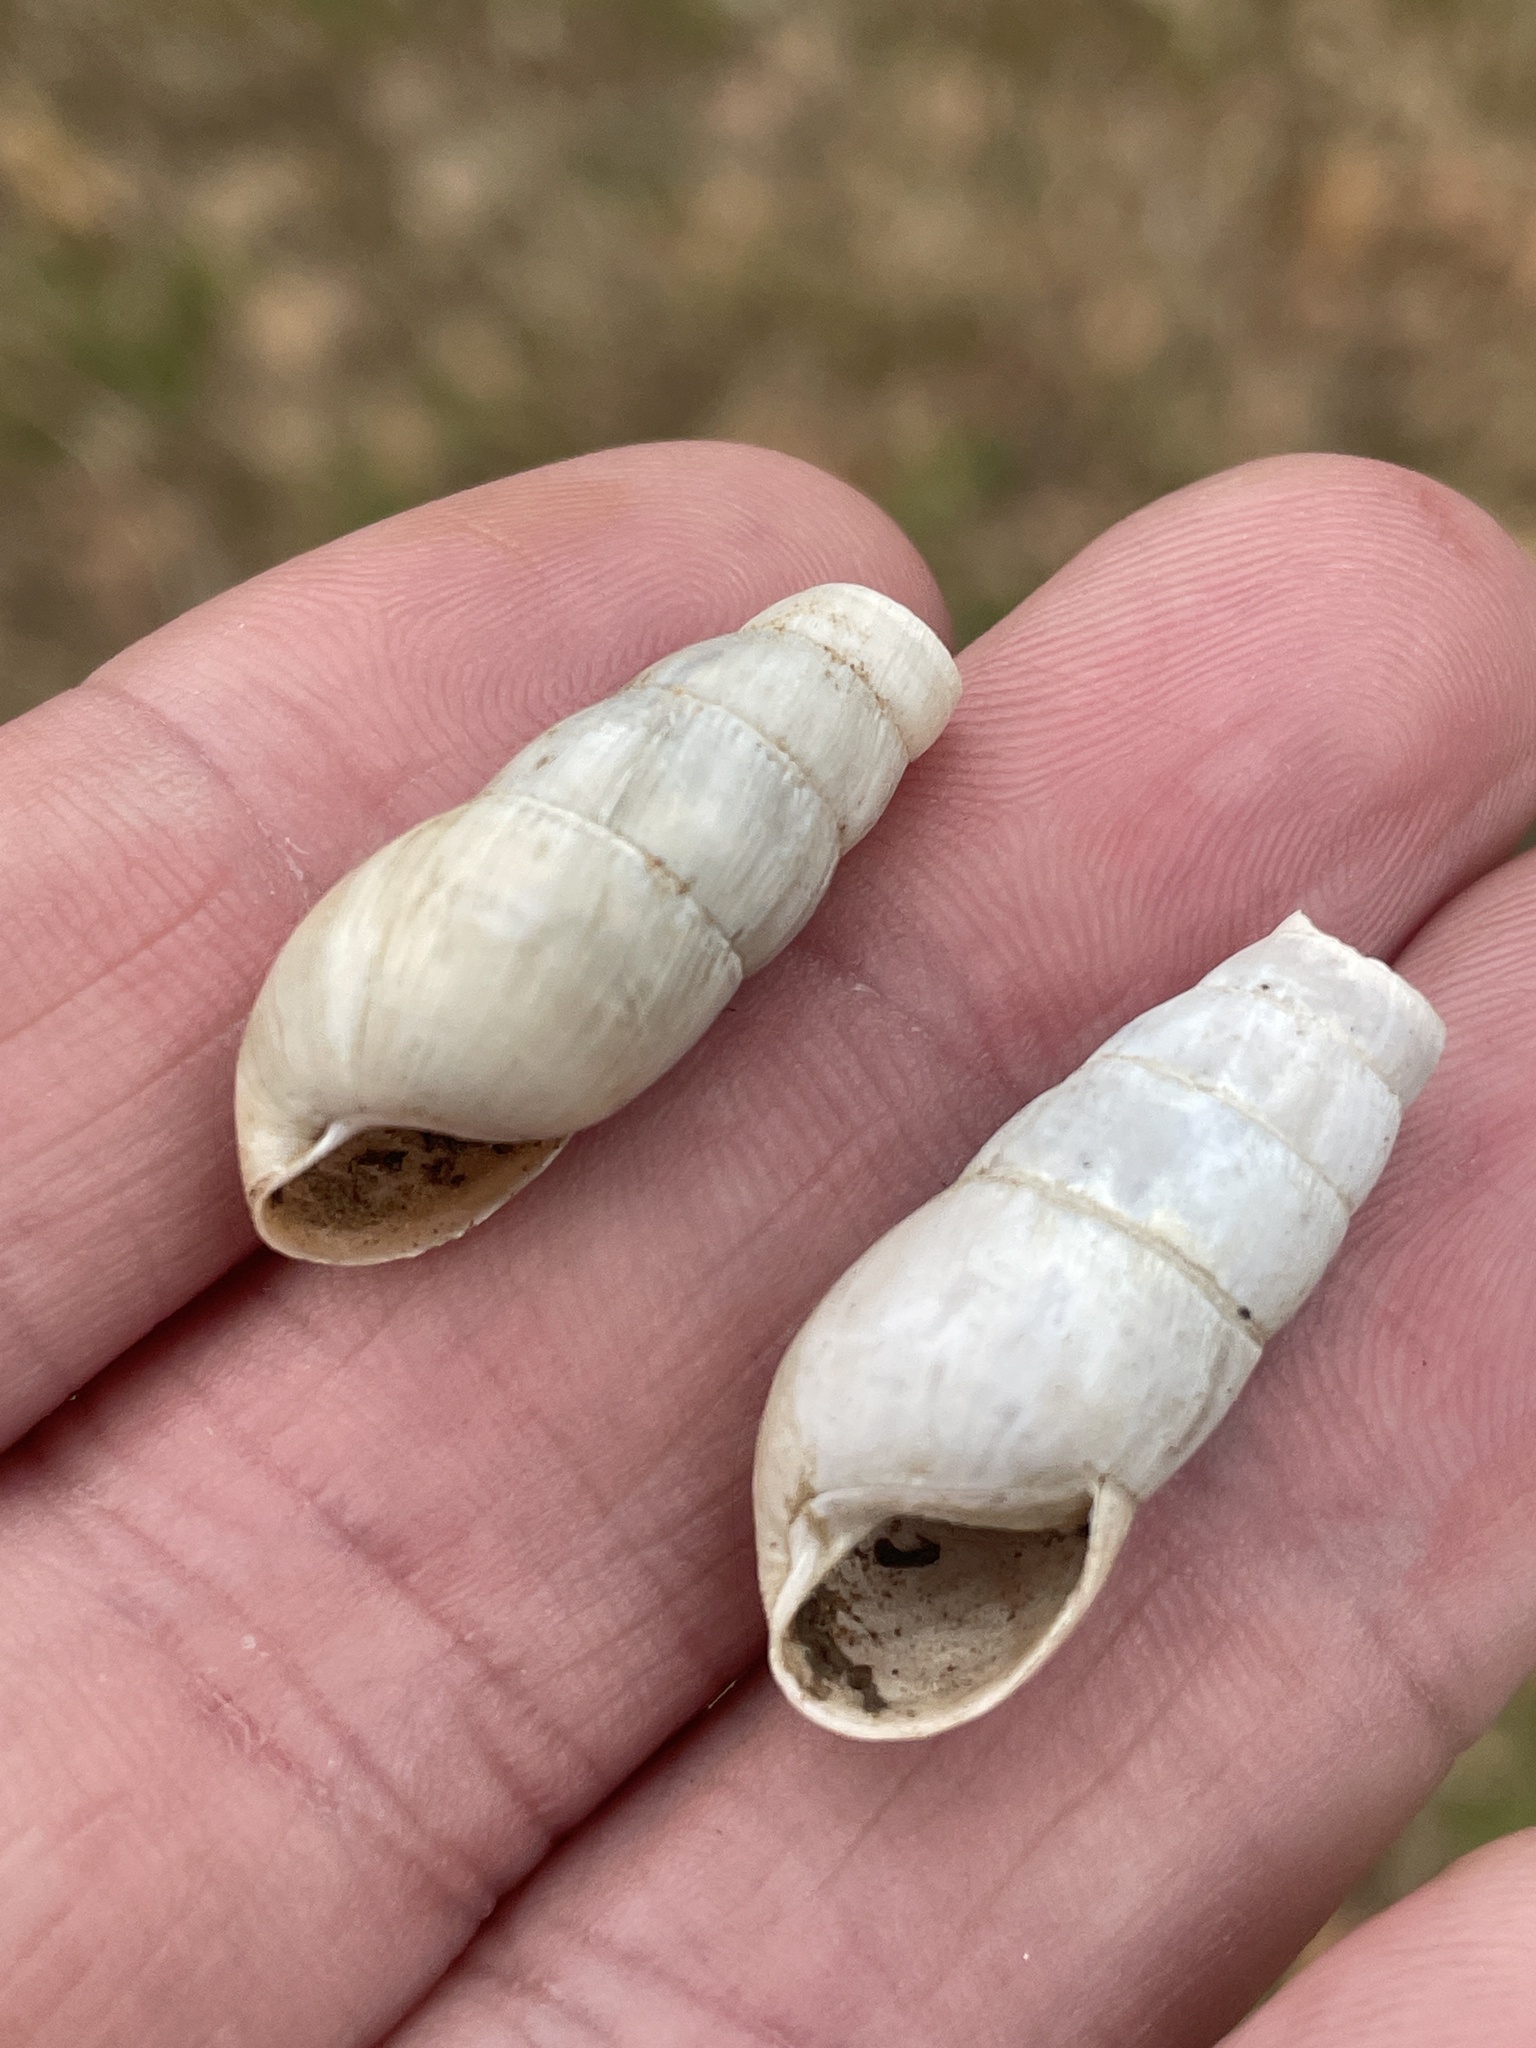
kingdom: Animalia
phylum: Mollusca
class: Gastropoda
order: Stylommatophora
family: Achatinidae
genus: Rumina
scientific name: Rumina decollata
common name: Decollate snail
